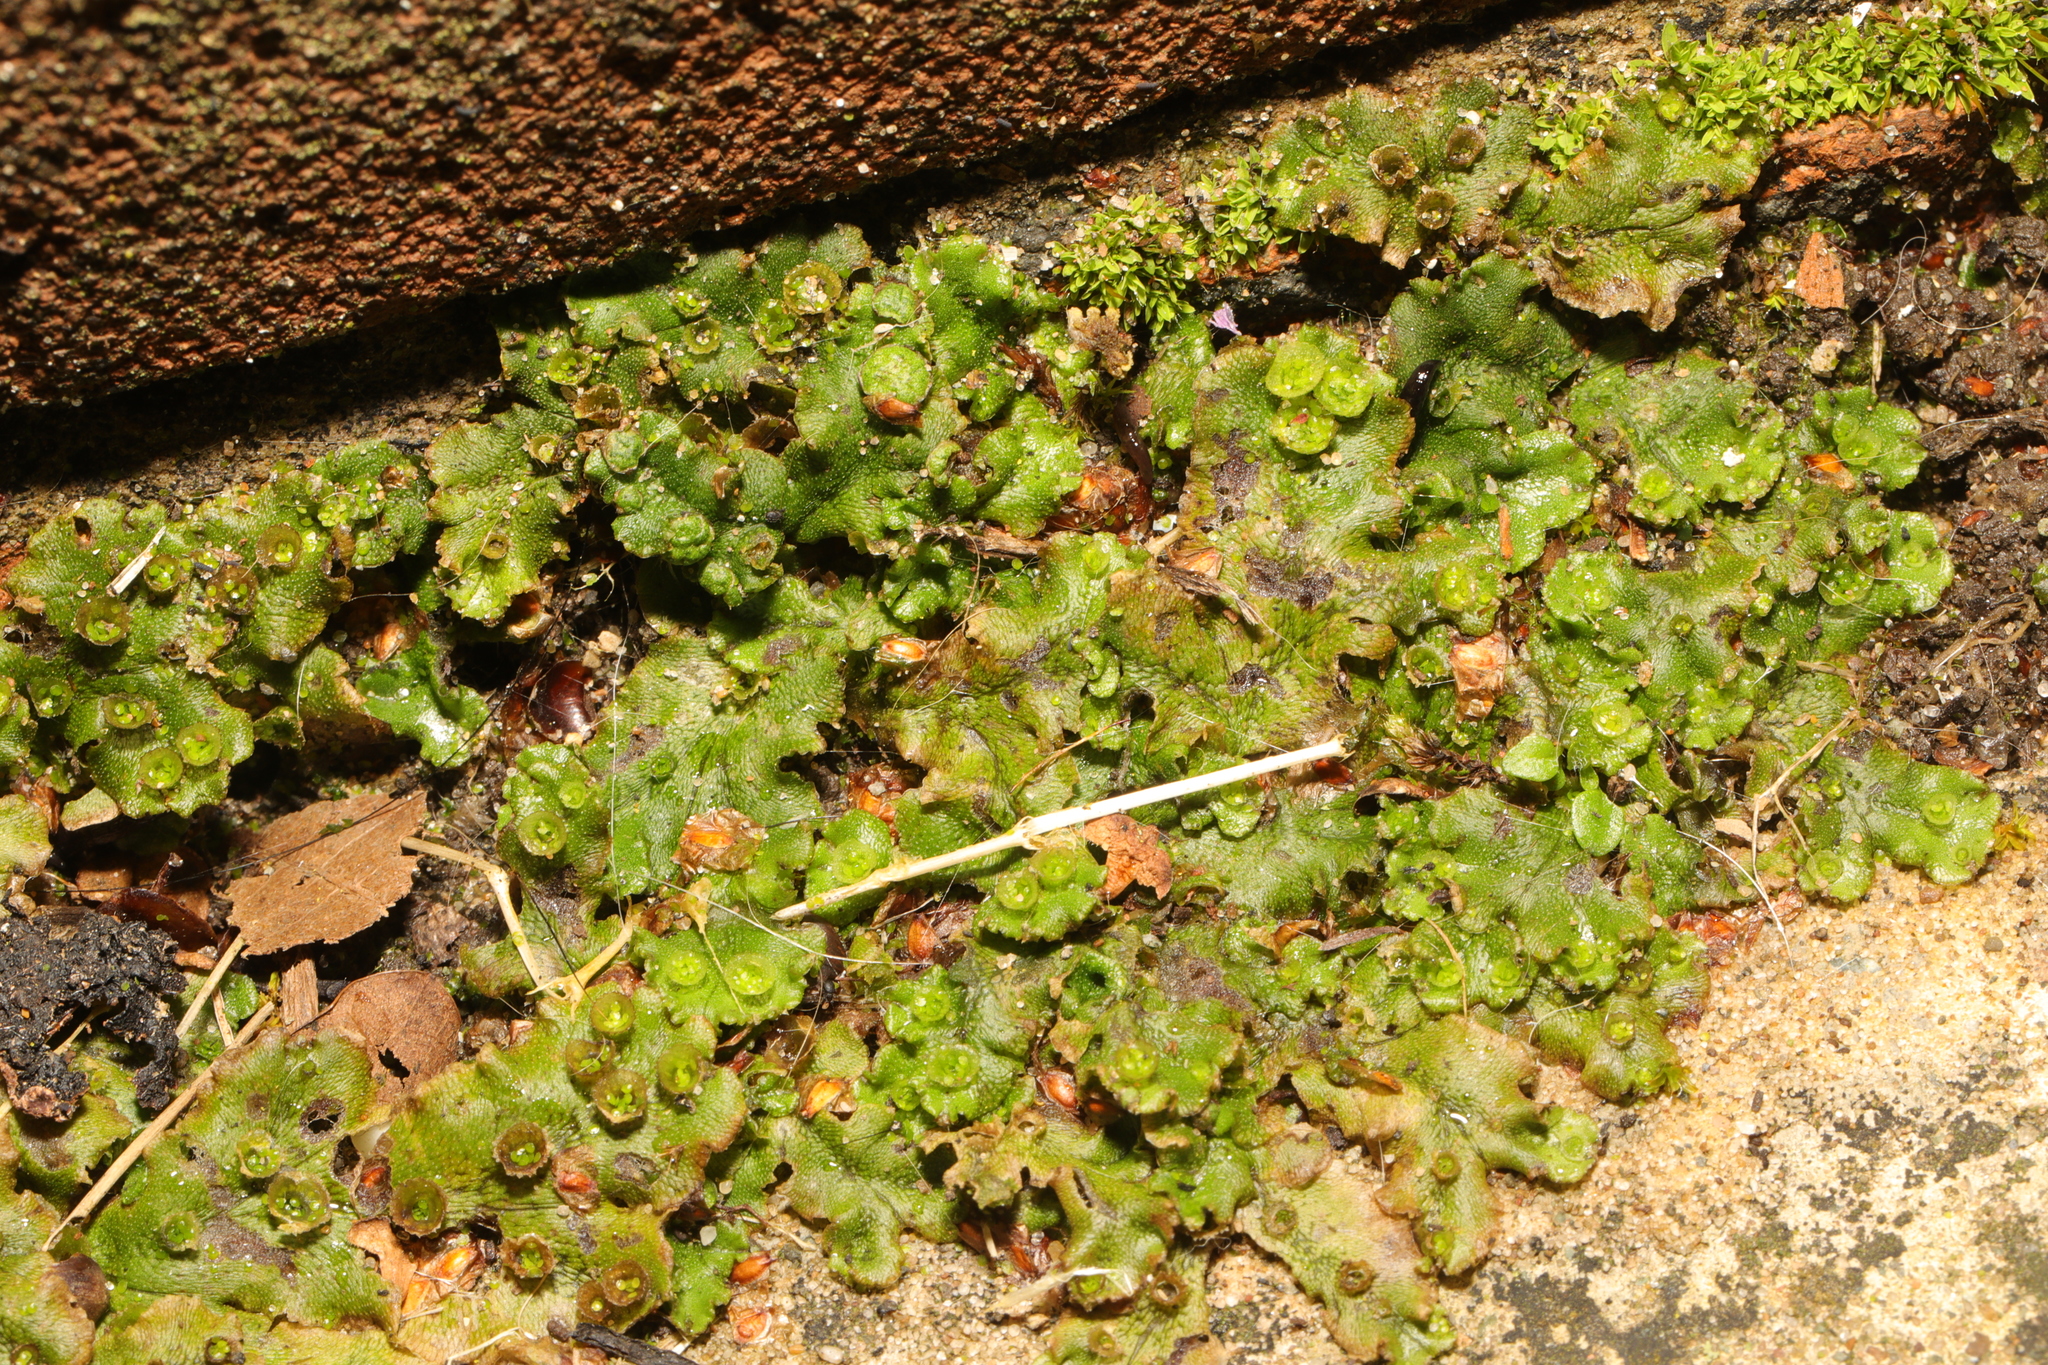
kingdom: Plantae
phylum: Marchantiophyta
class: Marchantiopsida
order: Marchantiales
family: Marchantiaceae
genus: Marchantia
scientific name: Marchantia polymorpha
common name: Common liverwort
